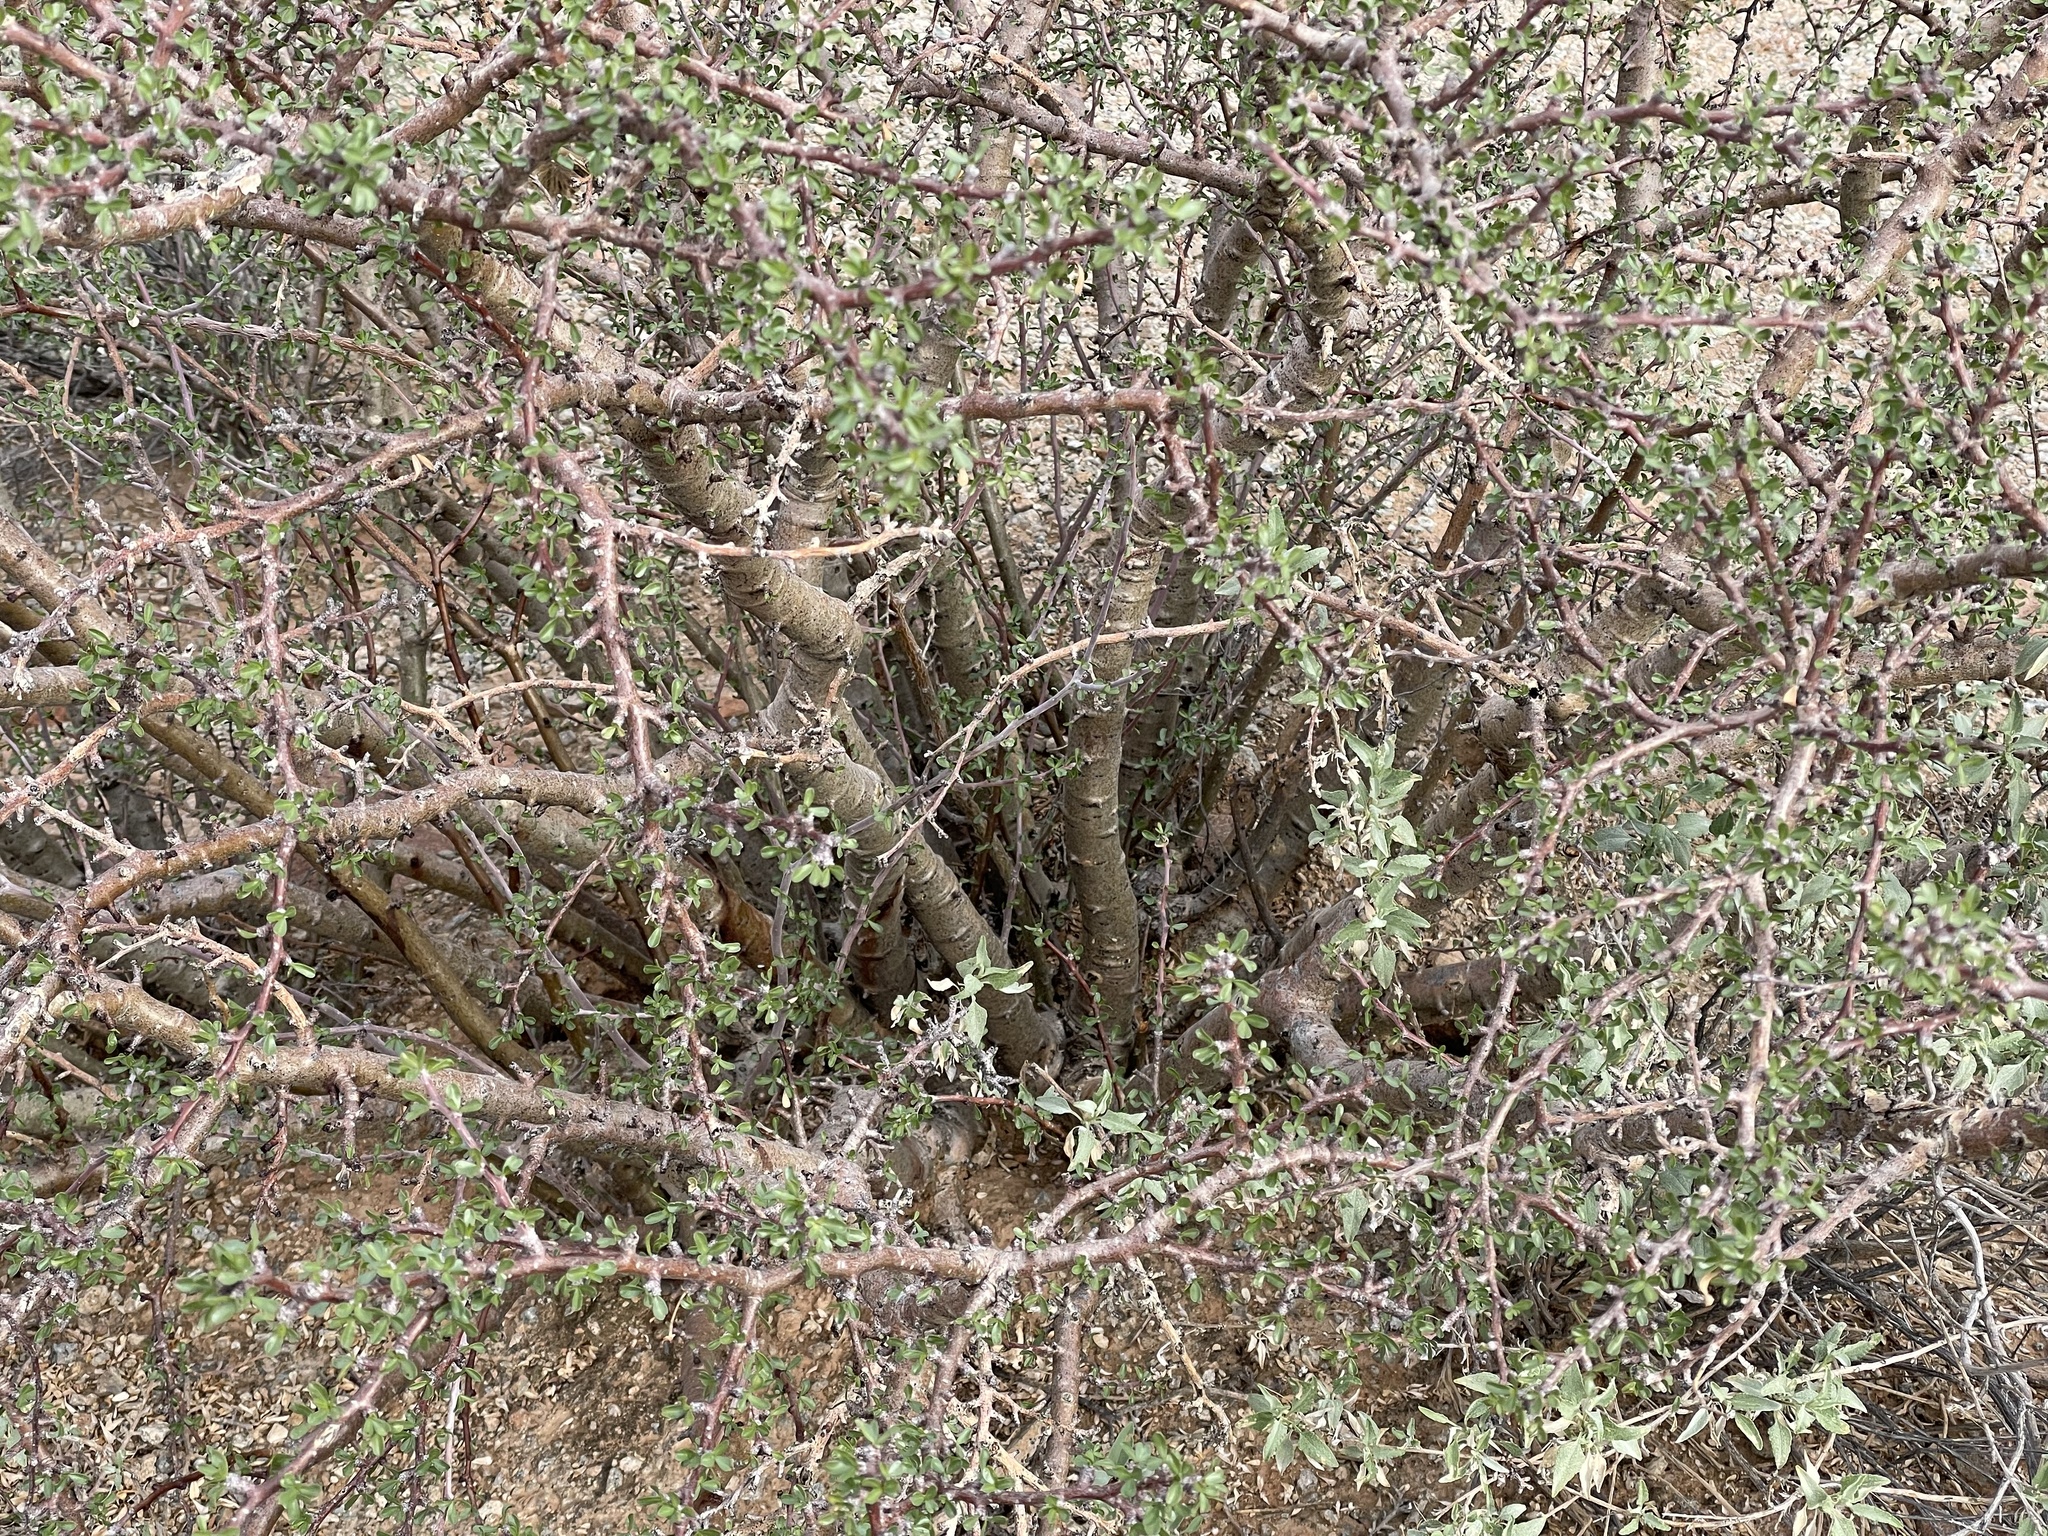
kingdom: Plantae
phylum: Tracheophyta
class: Magnoliopsida
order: Malpighiales
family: Euphorbiaceae
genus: Jatropha
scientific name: Jatropha cuneata
